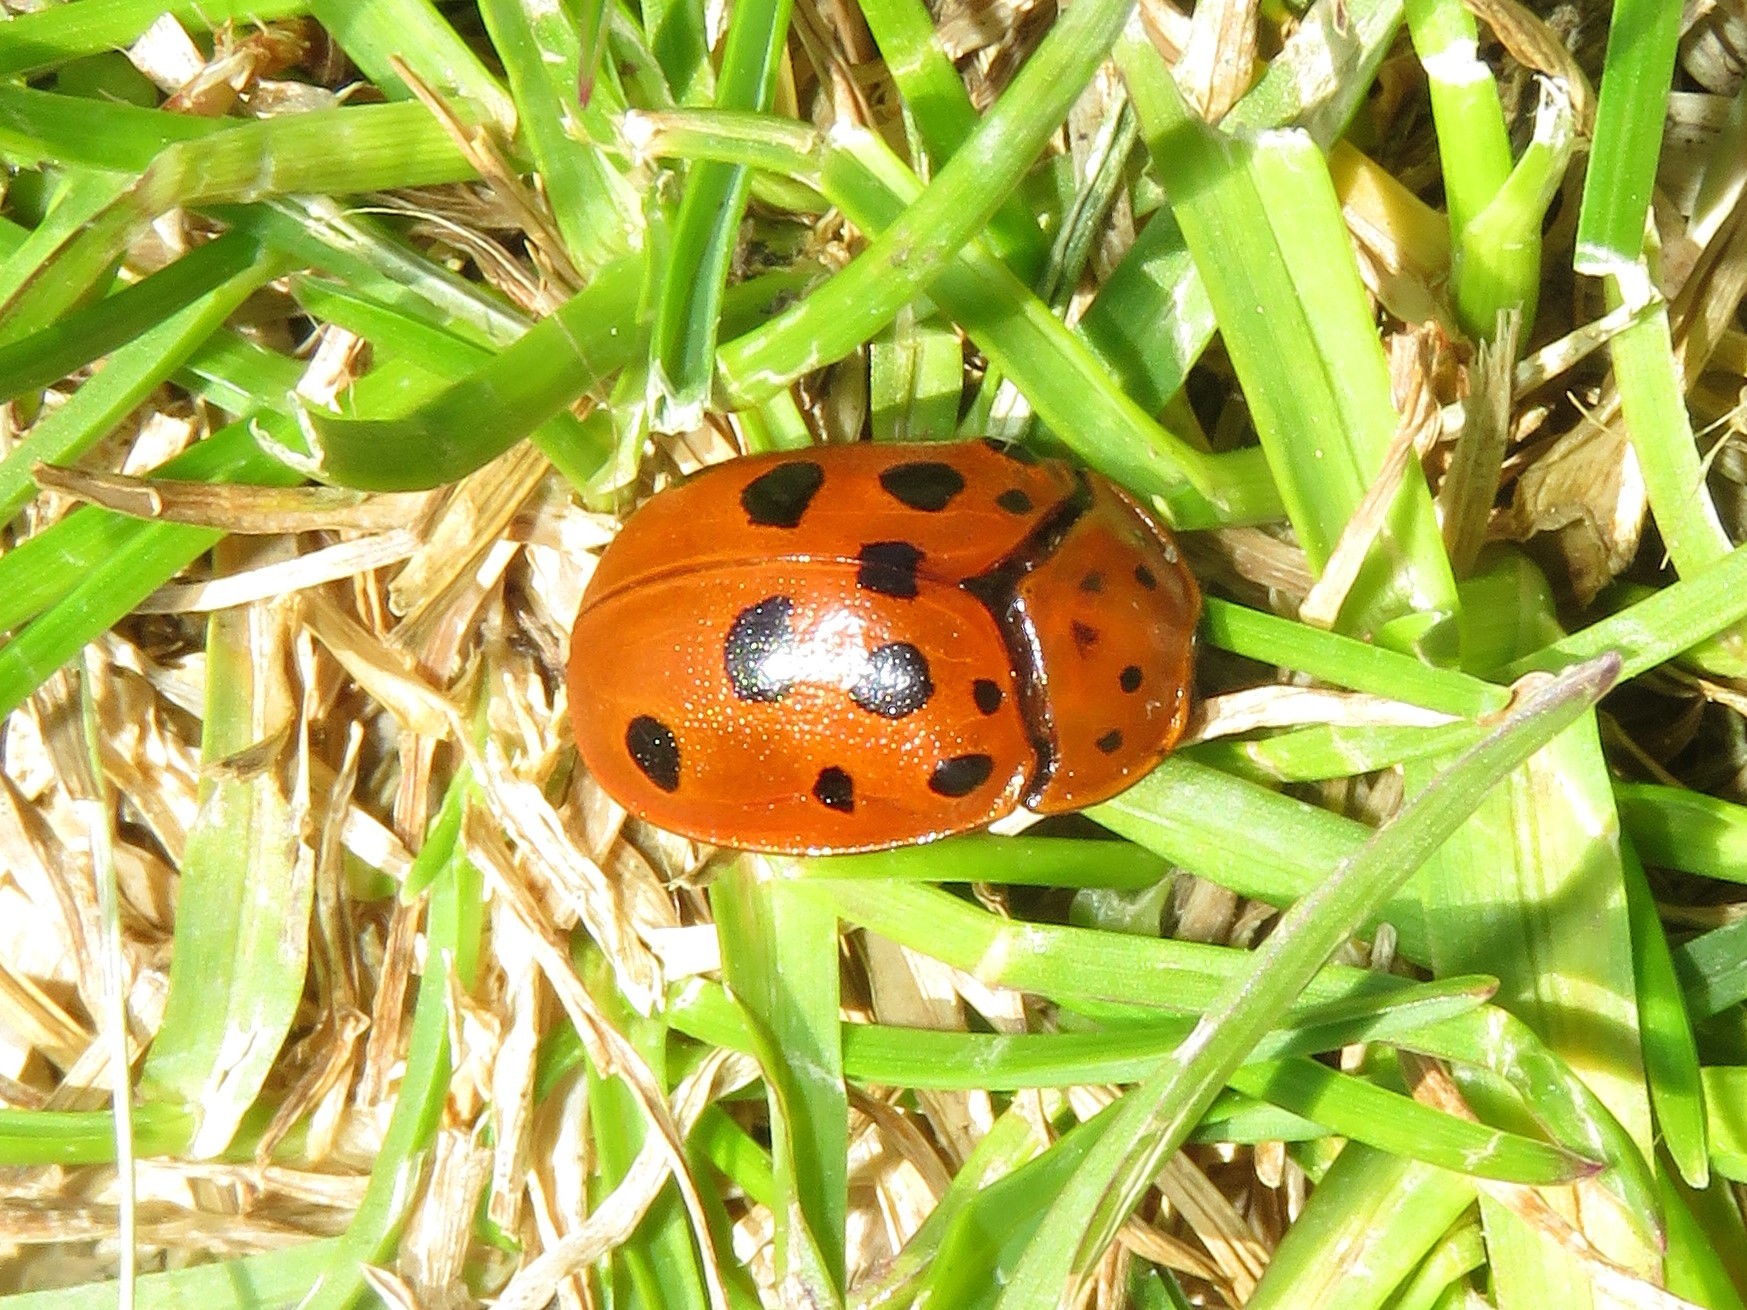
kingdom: Animalia
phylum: Arthropoda
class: Insecta
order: Coleoptera
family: Chrysomelidae
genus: Chelymorpha
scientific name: Chelymorpha cassidea
